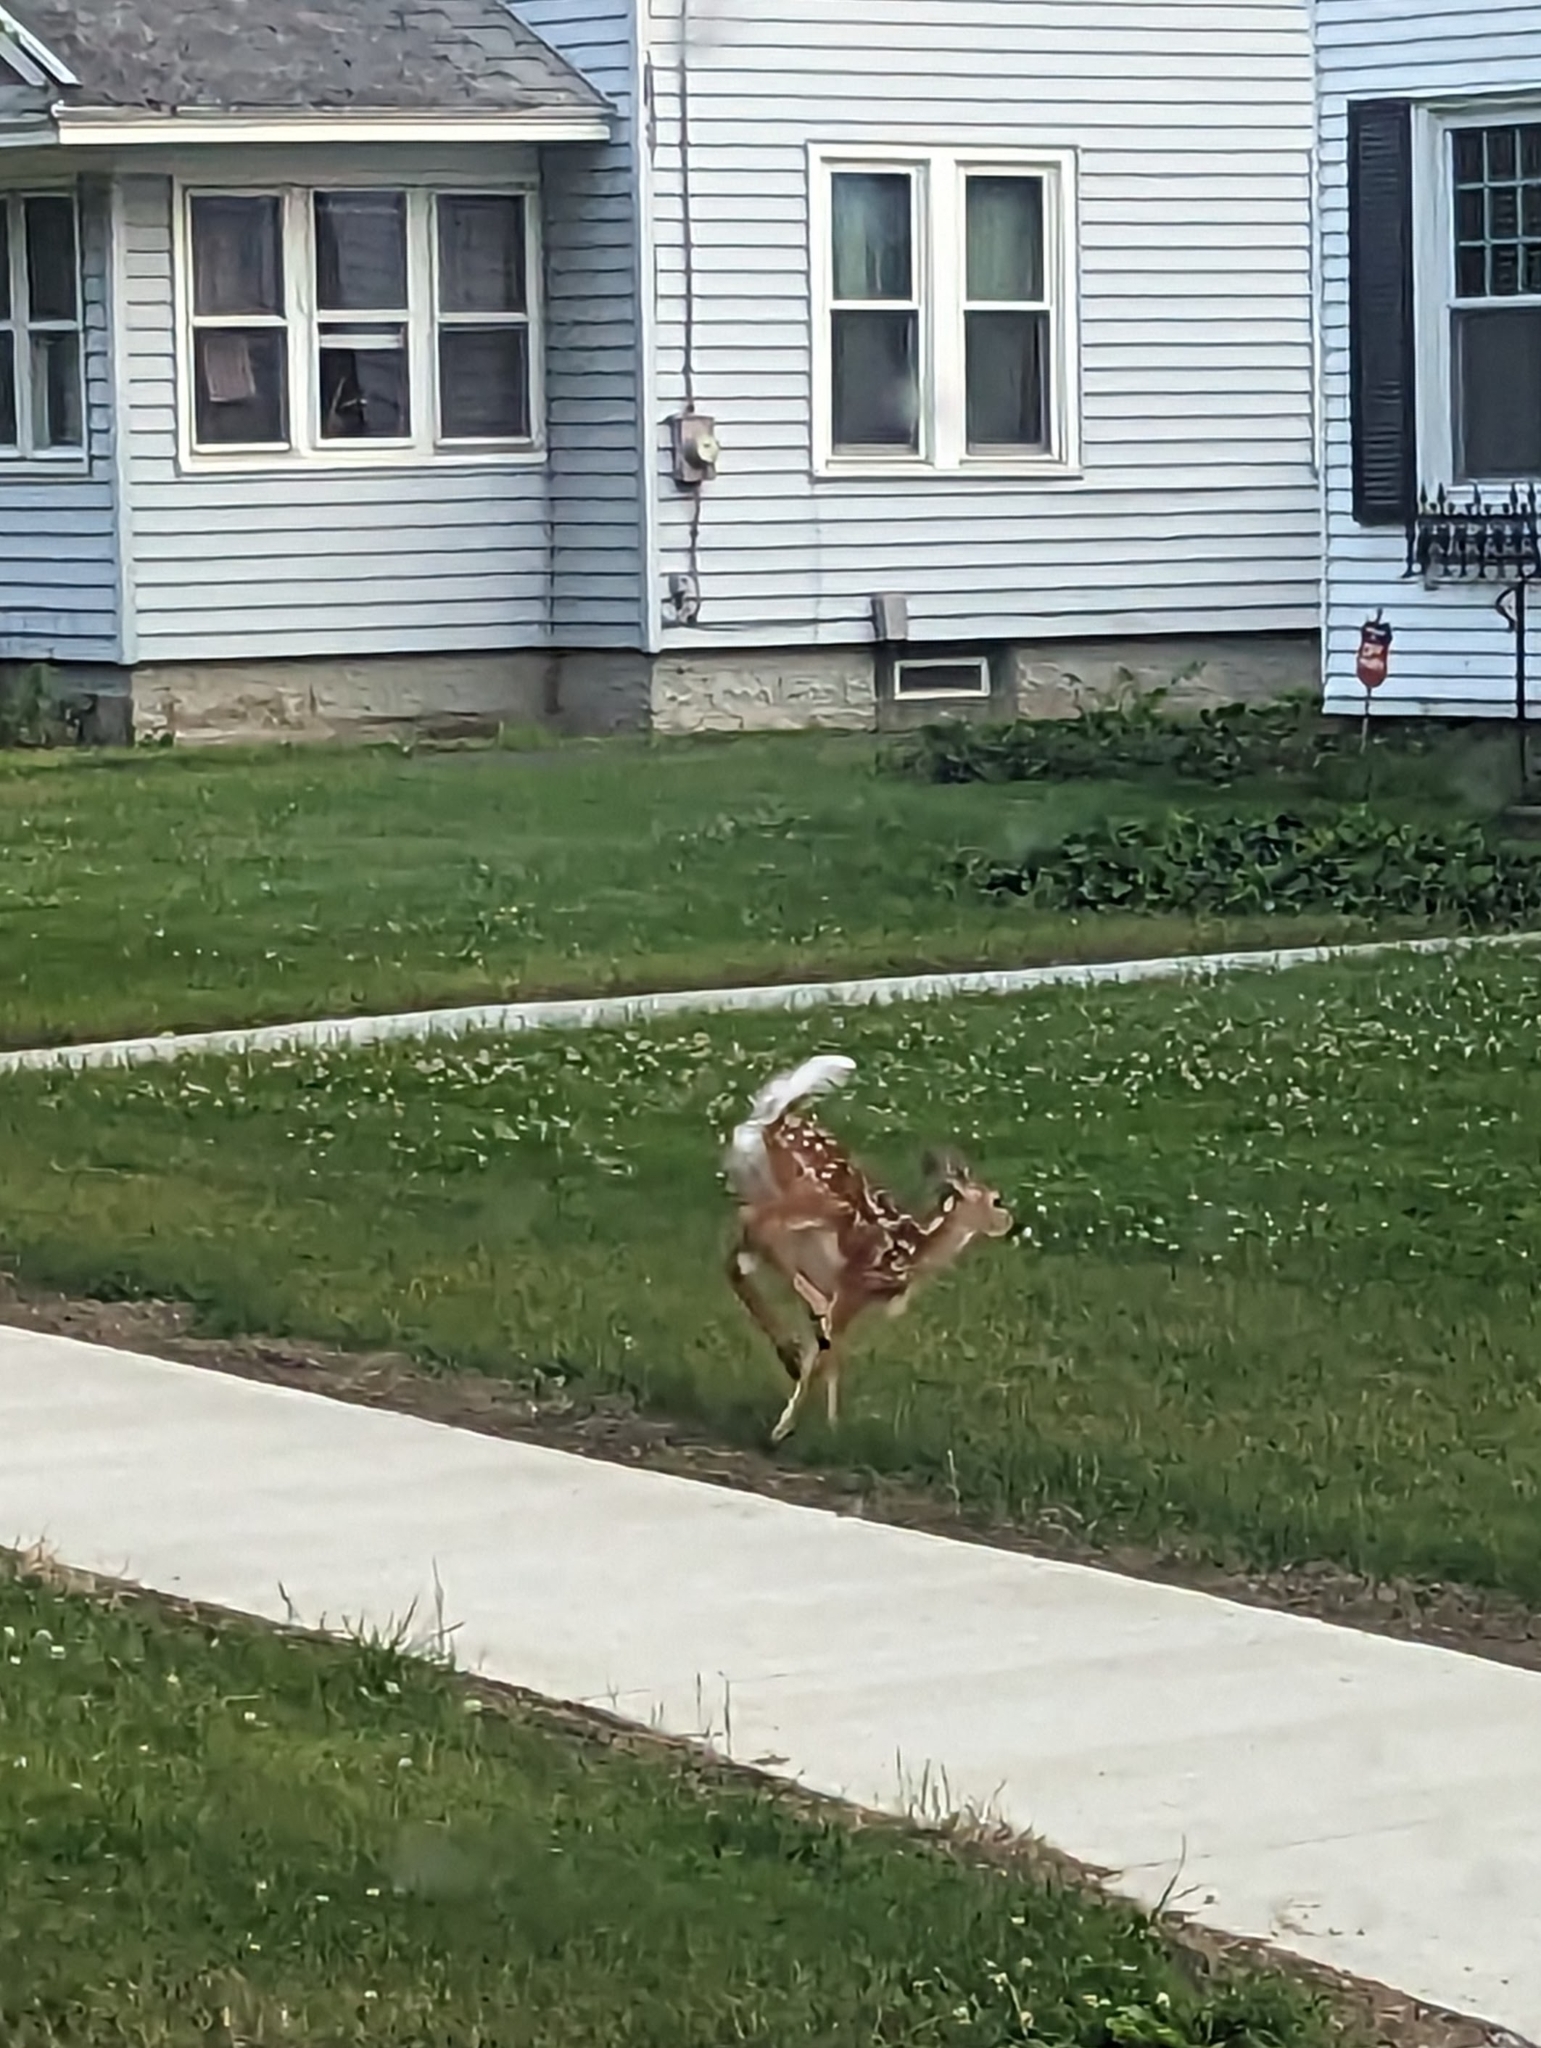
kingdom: Animalia
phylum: Chordata
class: Mammalia
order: Artiodactyla
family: Cervidae
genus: Odocoileus
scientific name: Odocoileus virginianus
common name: White-tailed deer
